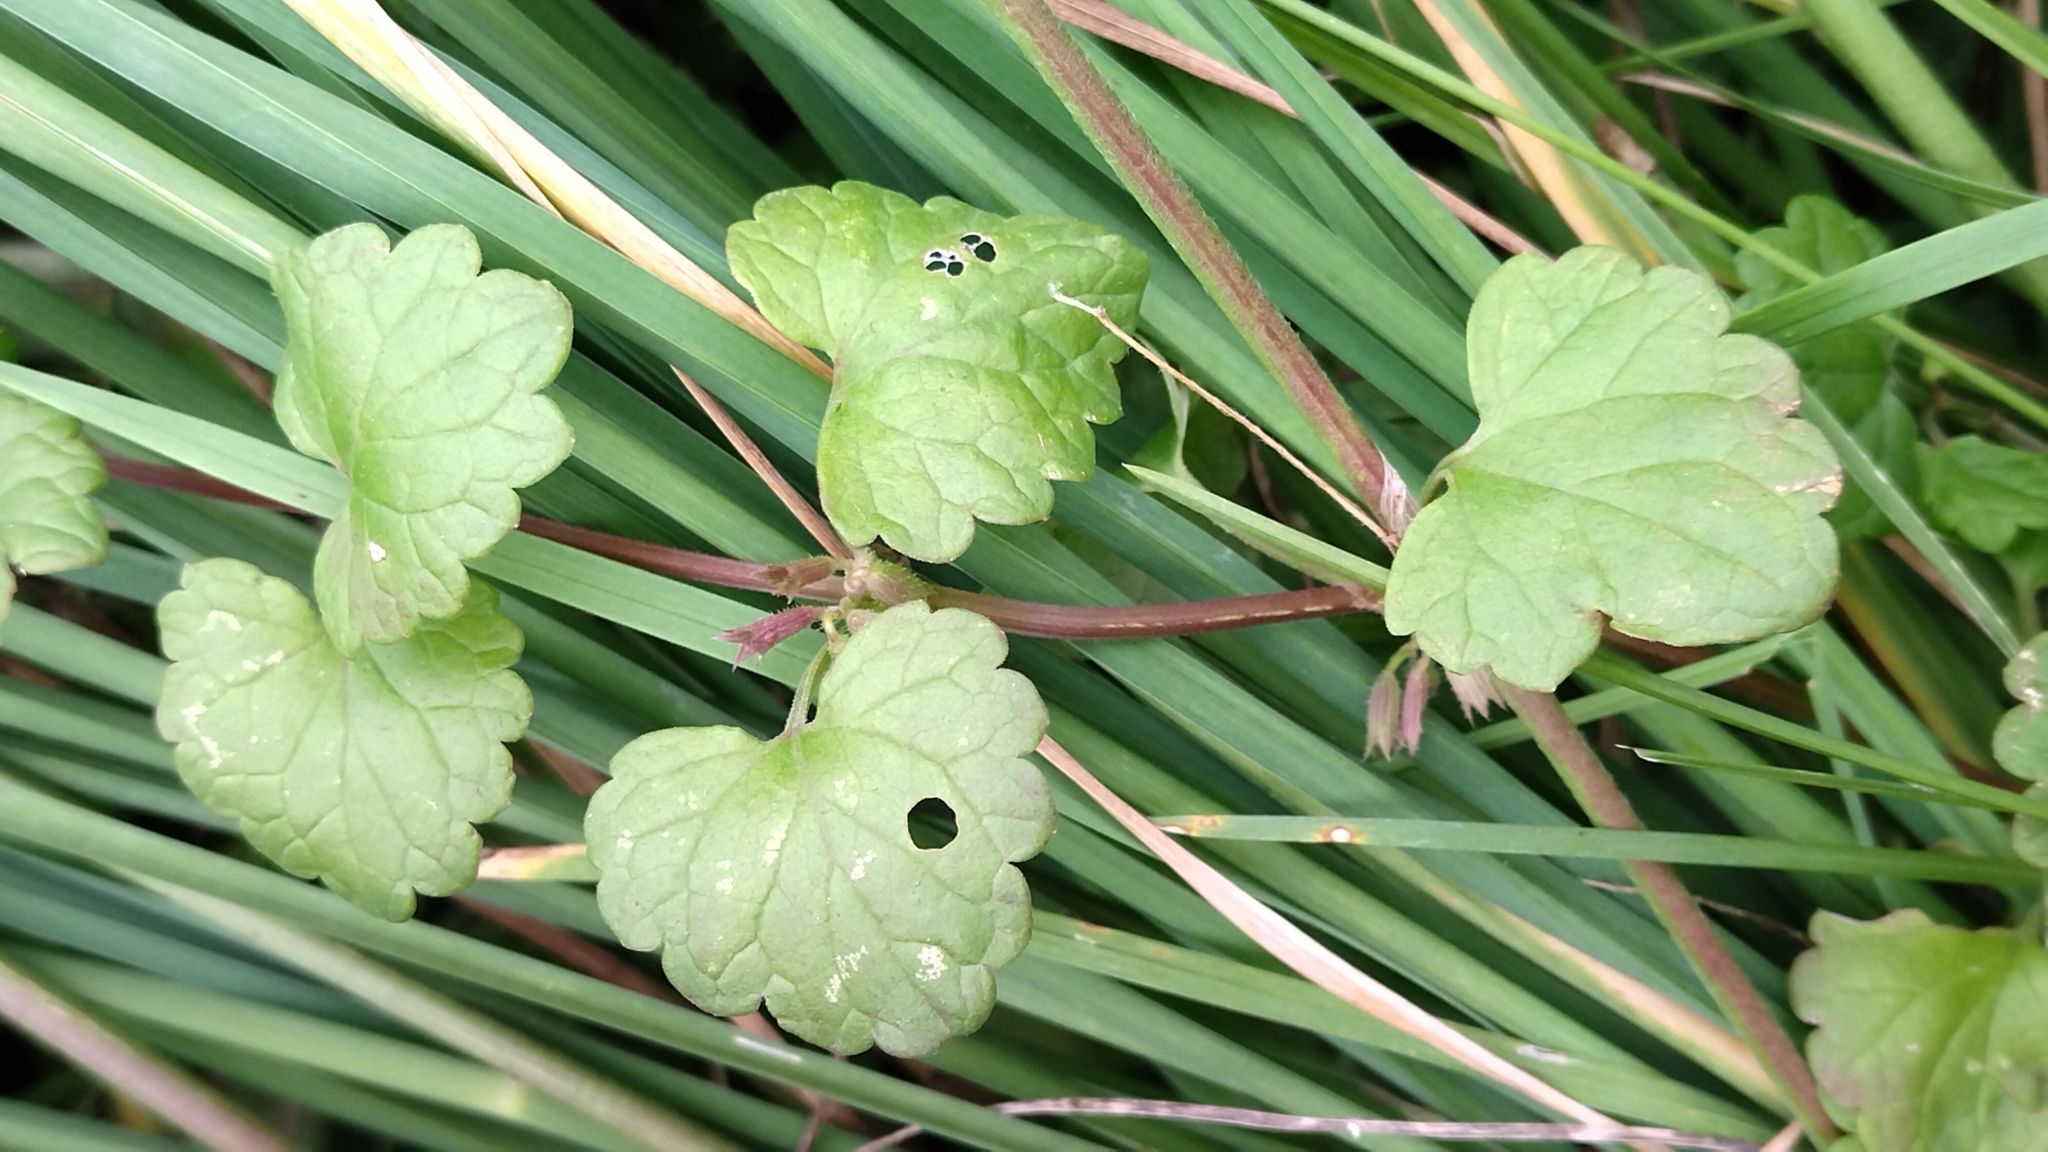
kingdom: Plantae
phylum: Tracheophyta
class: Magnoliopsida
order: Lamiales
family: Lamiaceae
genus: Glechoma
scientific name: Glechoma hederacea
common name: Ground ivy
